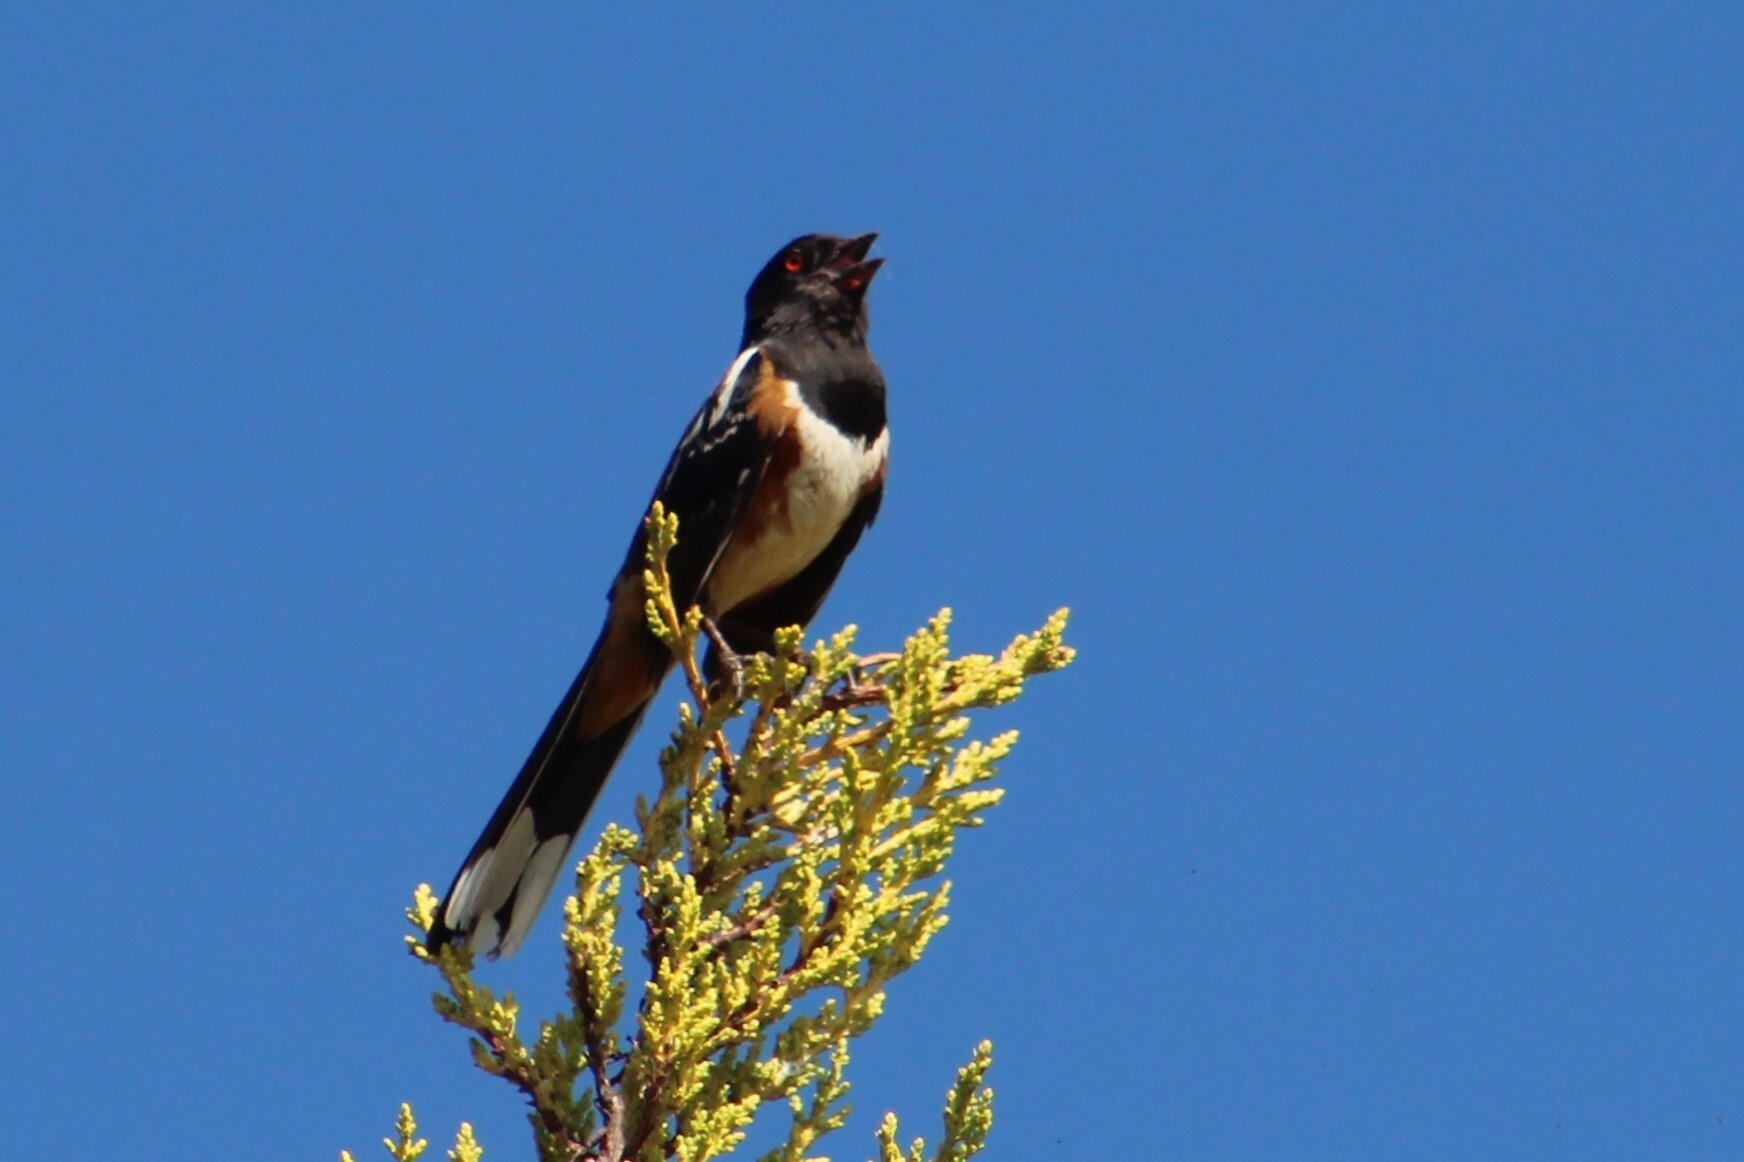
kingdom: Animalia
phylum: Chordata
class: Aves
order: Passeriformes
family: Passerellidae
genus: Pipilo
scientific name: Pipilo maculatus
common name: Spotted towhee
